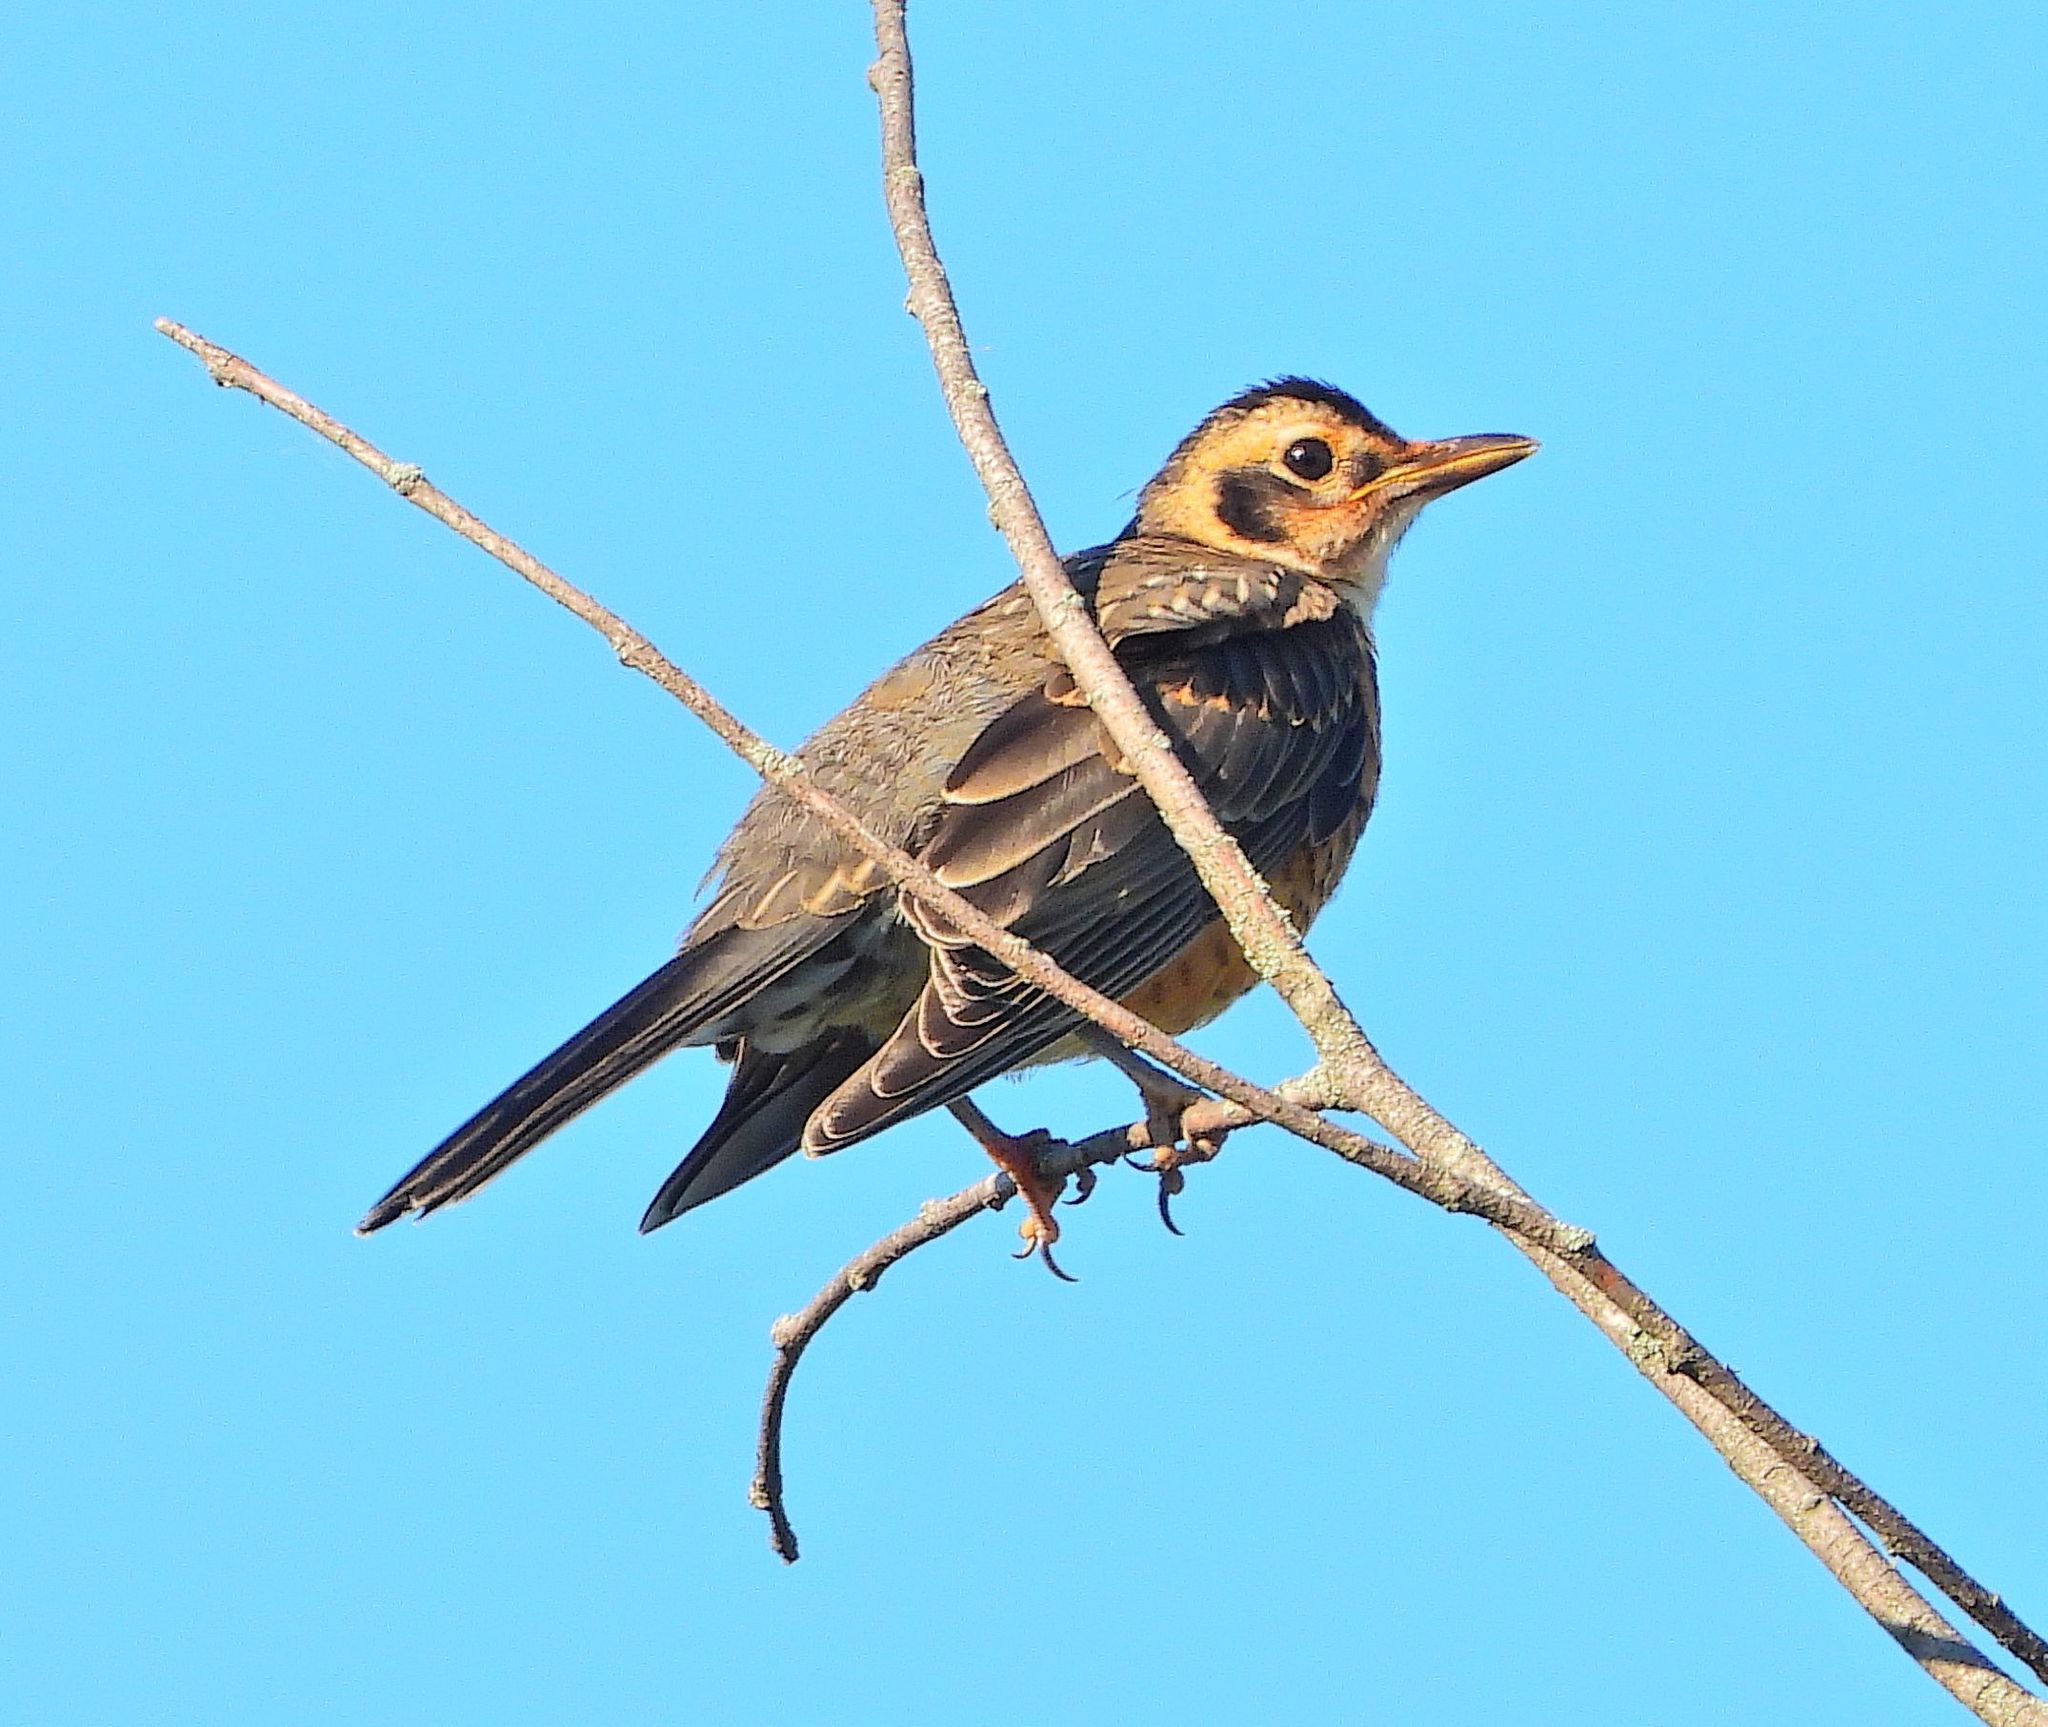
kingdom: Animalia
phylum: Chordata
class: Aves
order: Passeriformes
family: Turdidae
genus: Turdus
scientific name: Turdus migratorius
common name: American robin
